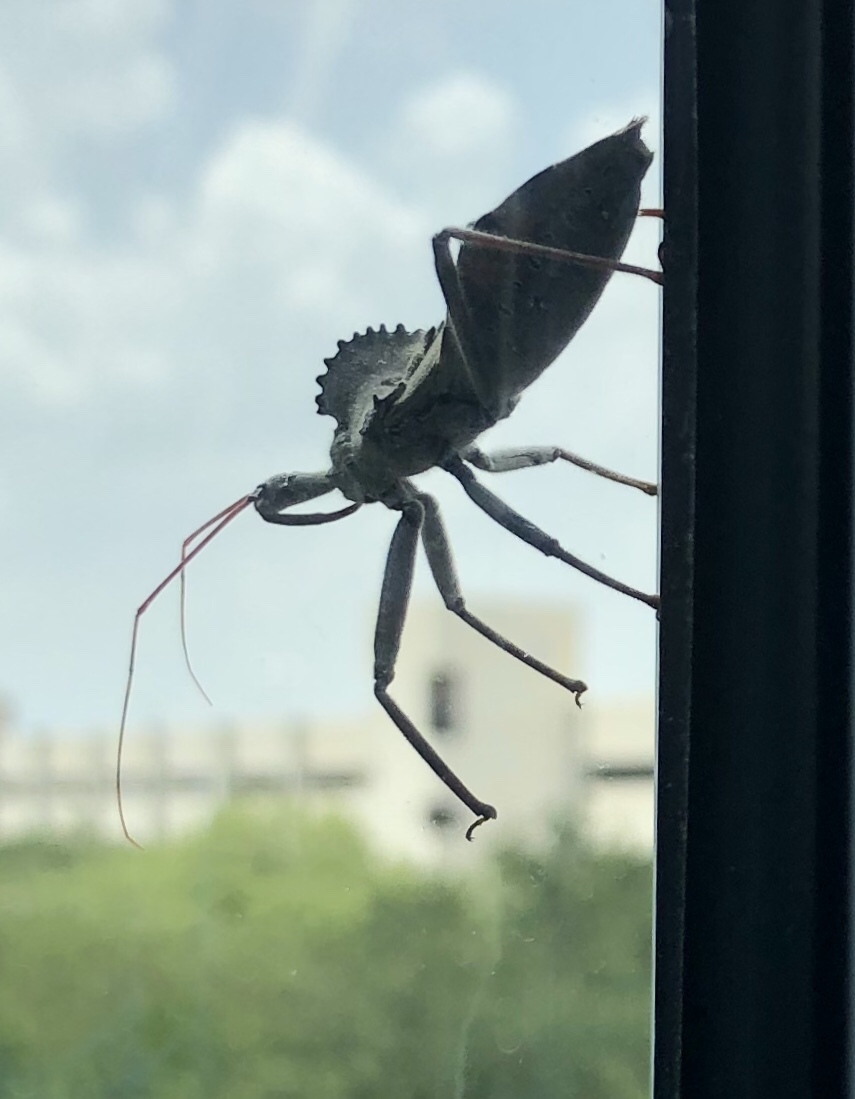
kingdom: Animalia
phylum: Arthropoda
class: Insecta
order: Hemiptera
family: Reduviidae
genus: Arilus
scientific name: Arilus cristatus
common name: North american wheel bug
